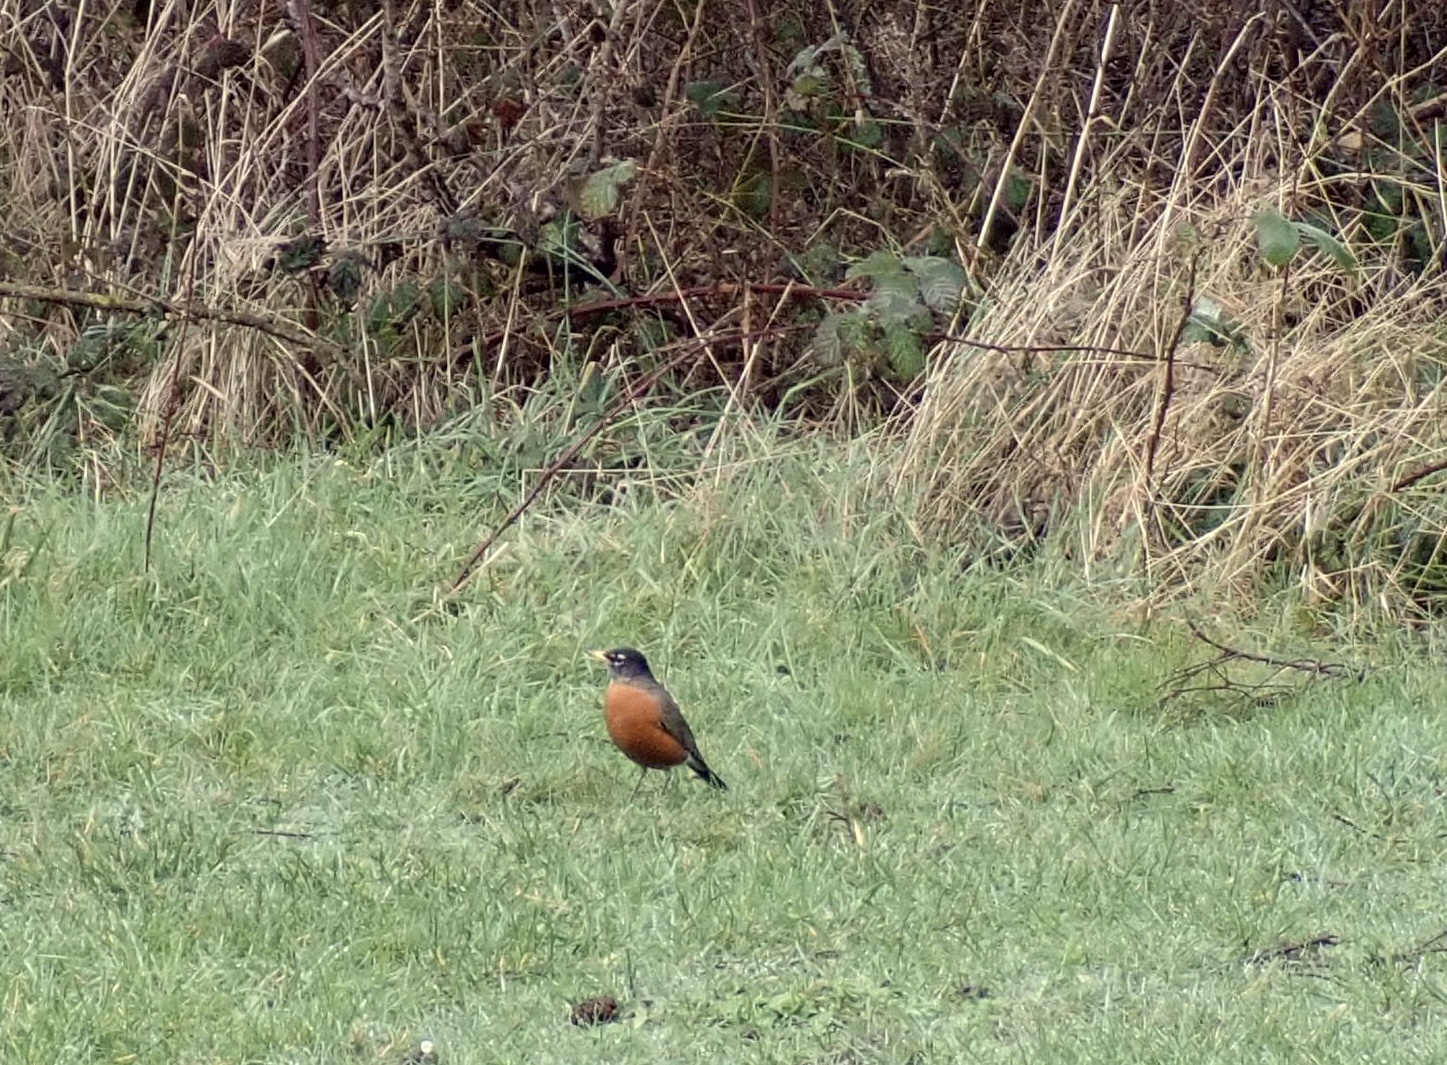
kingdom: Animalia
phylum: Chordata
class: Aves
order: Passeriformes
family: Turdidae
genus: Turdus
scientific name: Turdus migratorius
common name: American robin
